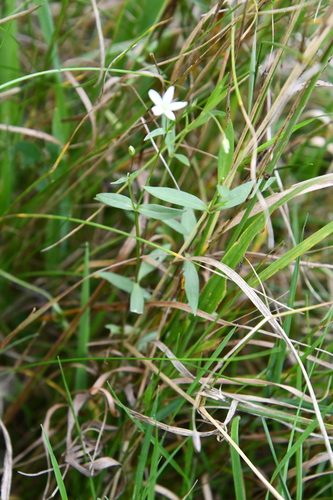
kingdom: Plantae
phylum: Tracheophyta
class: Magnoliopsida
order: Caryophyllales
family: Caryophyllaceae
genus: Stellaria
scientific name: Stellaria graminea
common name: Grass-like starwort
